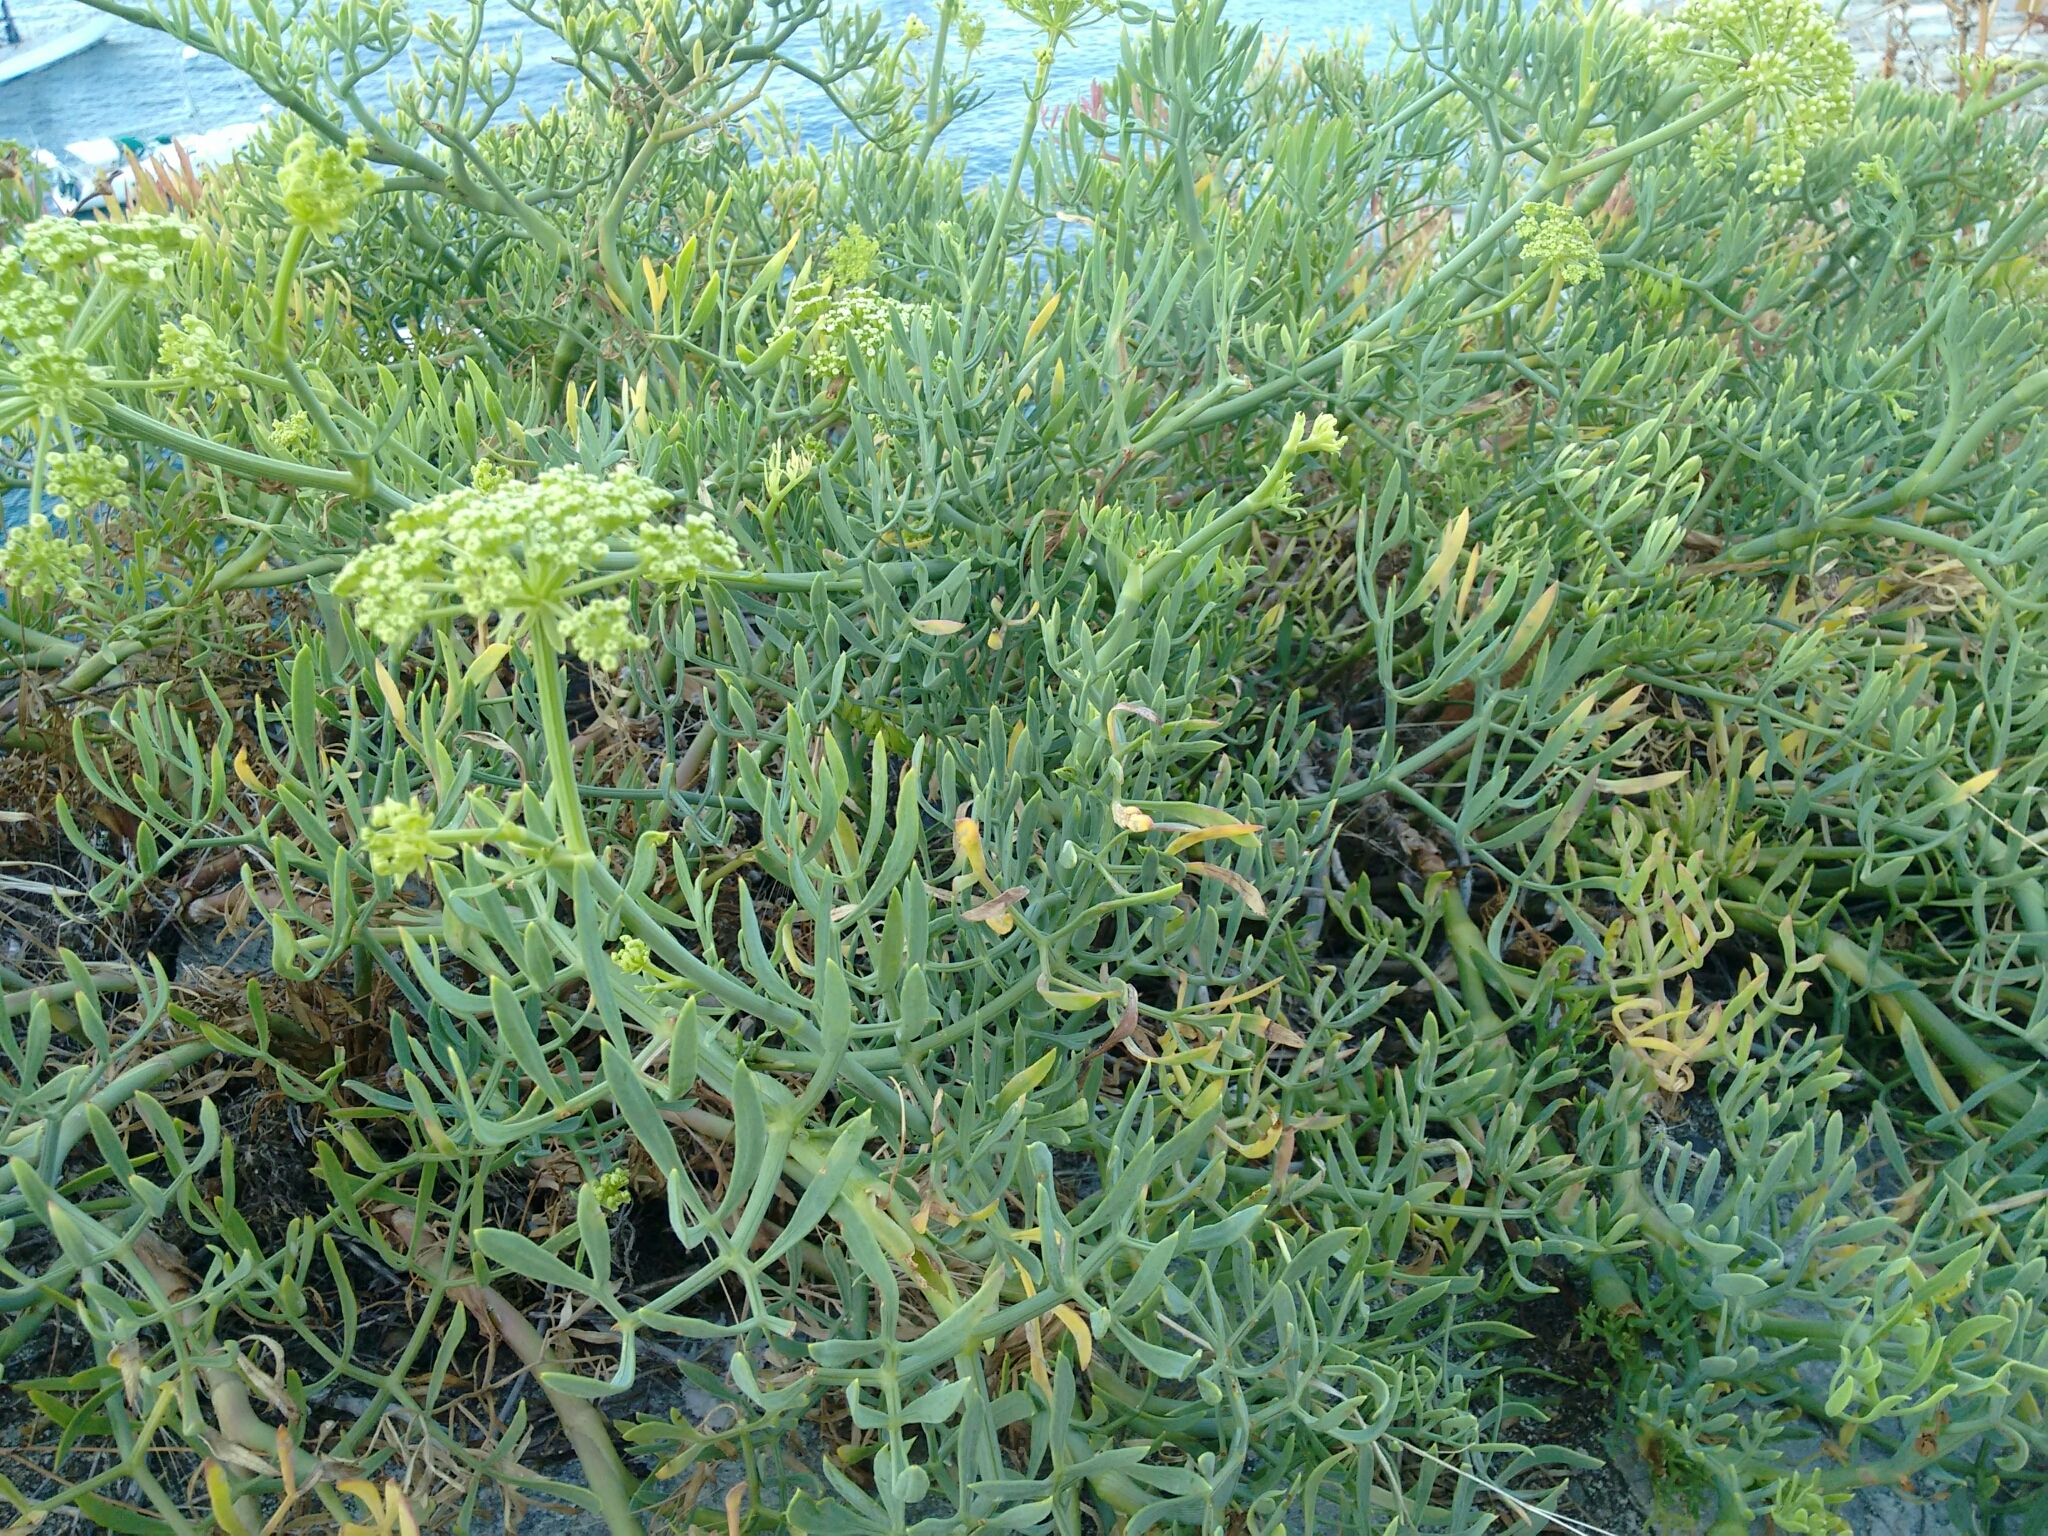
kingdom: Plantae
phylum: Tracheophyta
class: Magnoliopsida
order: Apiales
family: Apiaceae
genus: Crithmum
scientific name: Crithmum maritimum
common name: Rock samphire
